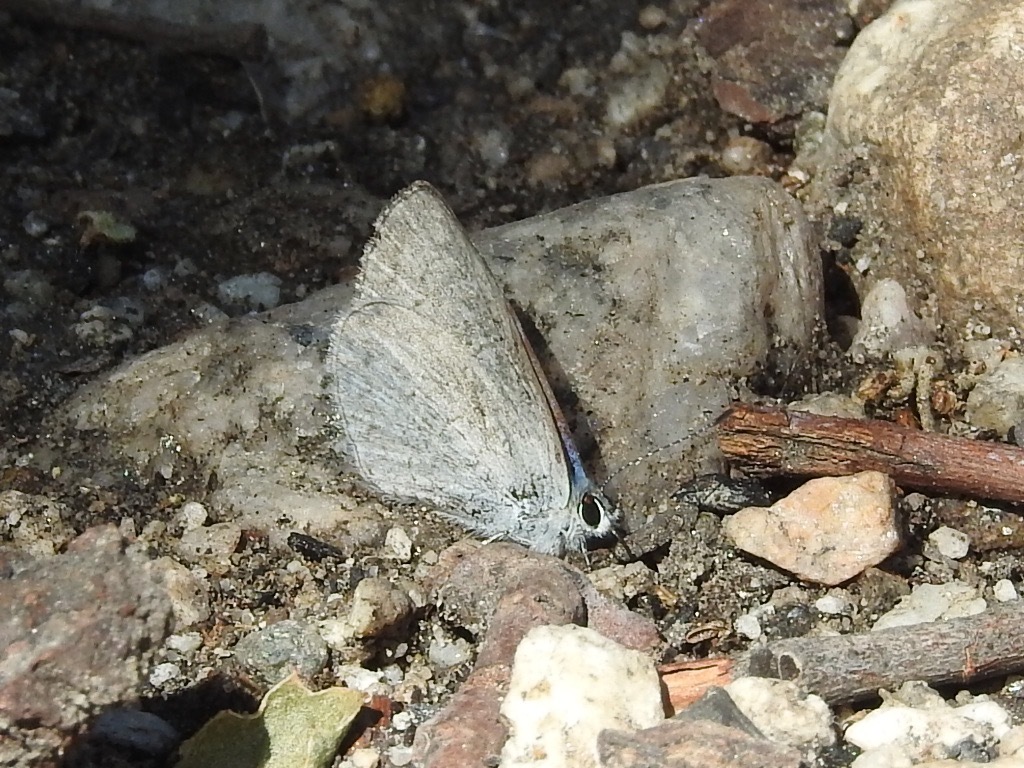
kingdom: Animalia
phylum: Arthropoda
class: Insecta
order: Lepidoptera
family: Lycaenidae
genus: Celastrina
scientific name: Celastrina ladon
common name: Spring azure
